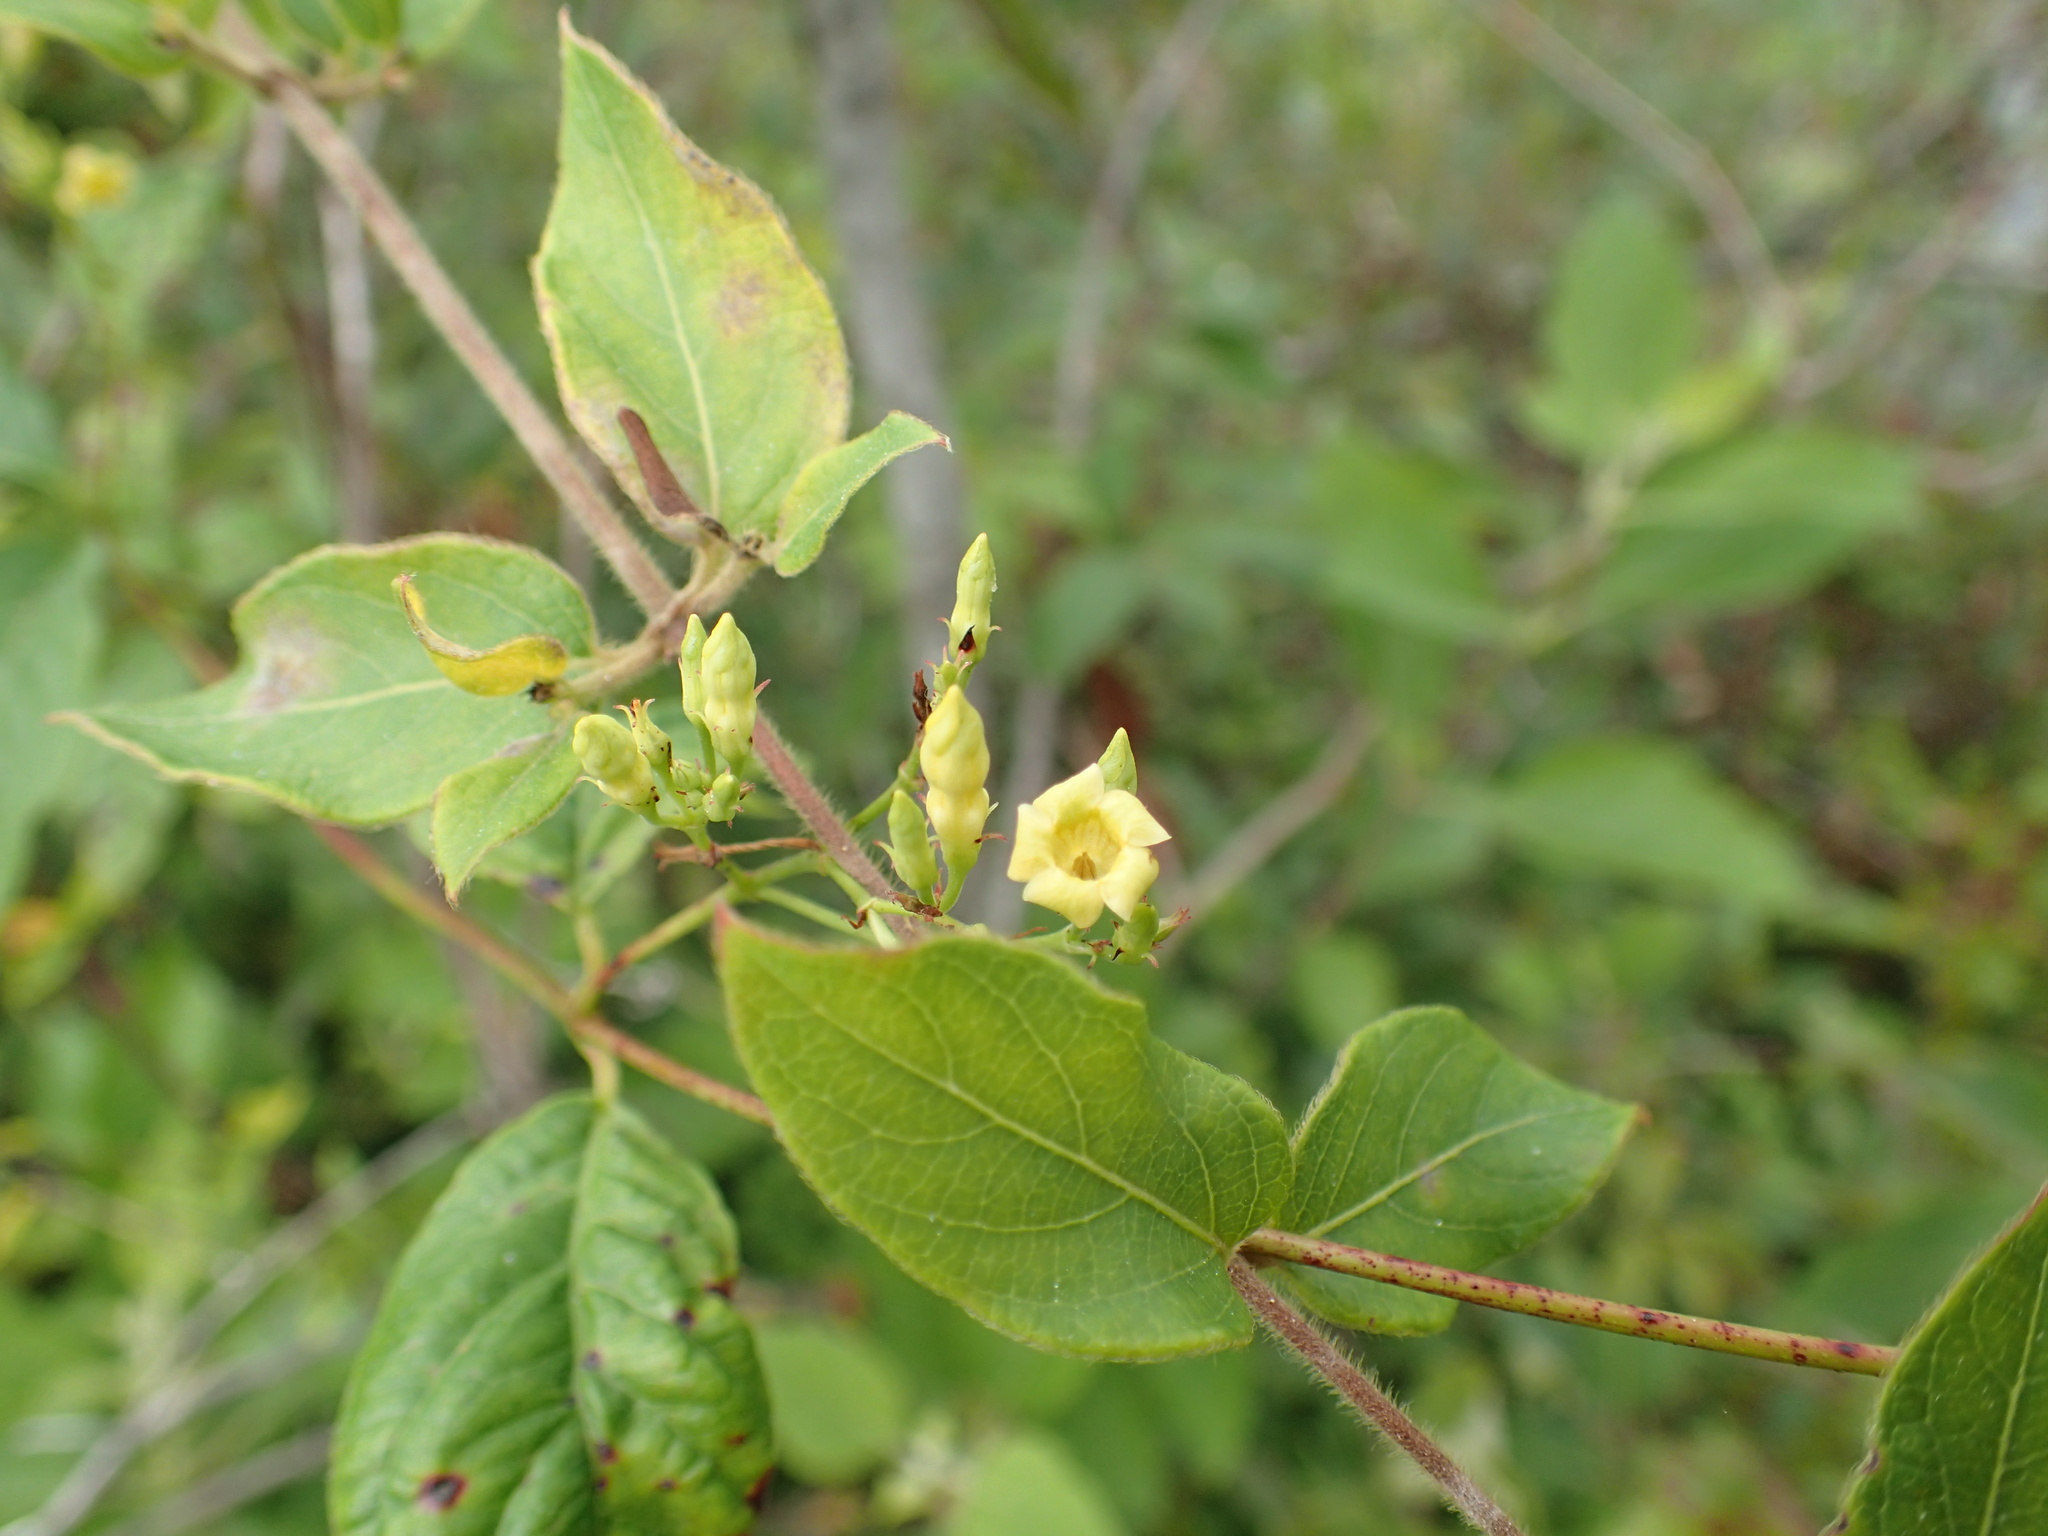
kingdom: Plantae
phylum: Tracheophyta
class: Magnoliopsida
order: Gentianales
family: Apocynaceae
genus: Thyrsanthella
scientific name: Thyrsanthella difformis
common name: Climbing dogbane
